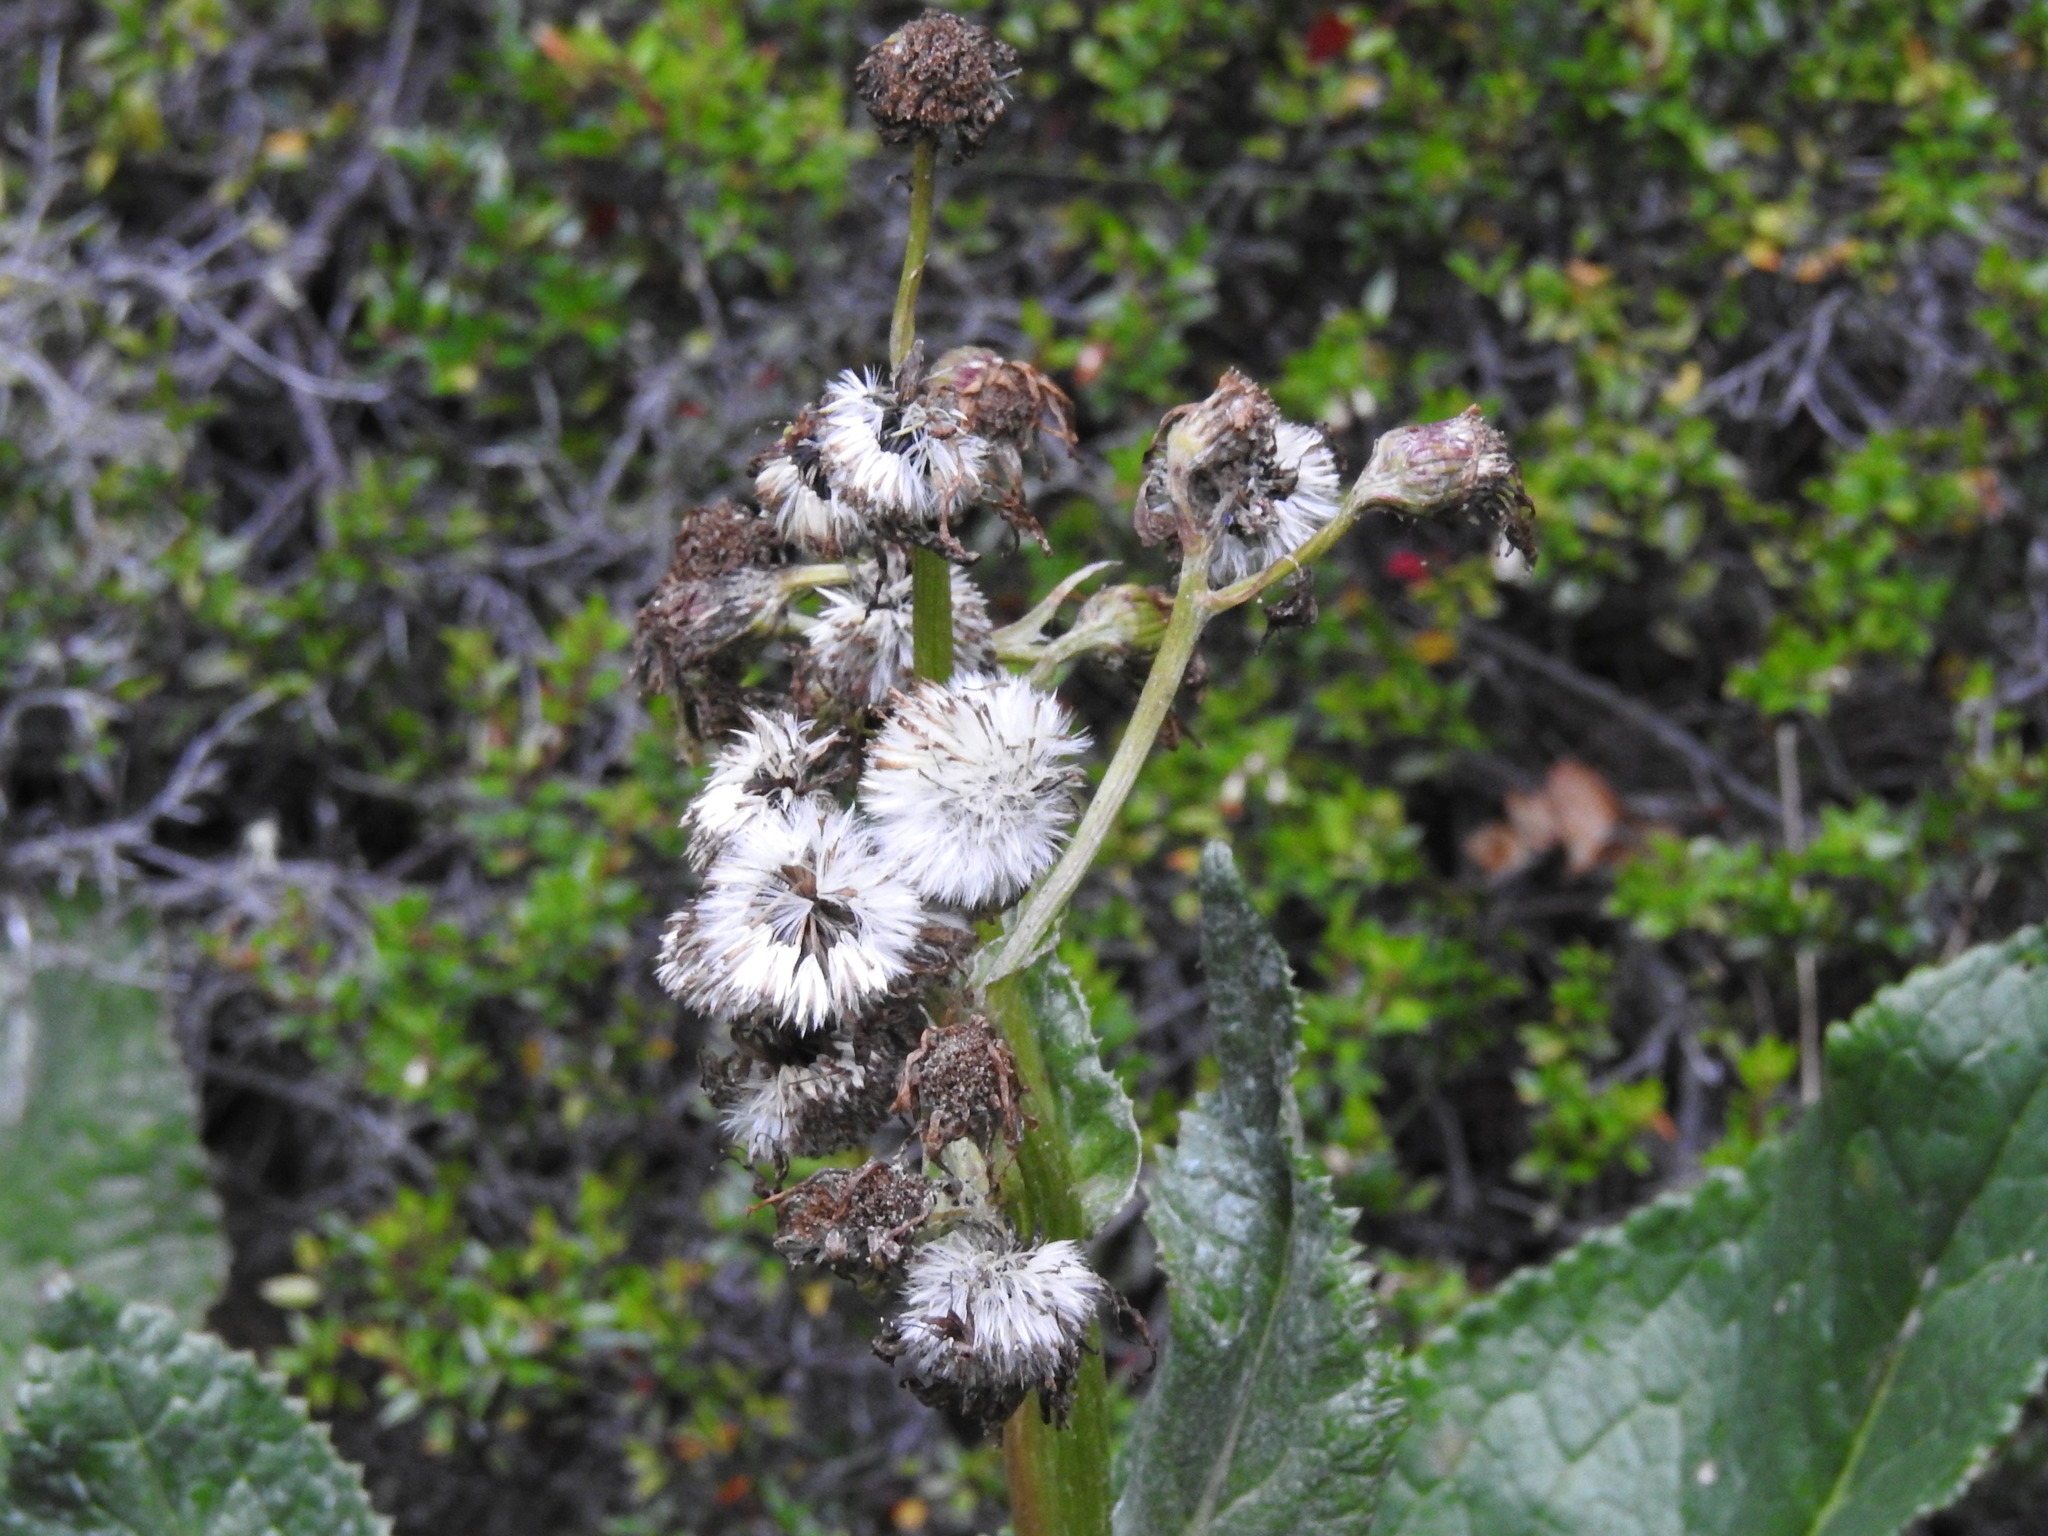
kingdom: Plantae
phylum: Tracheophyta
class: Magnoliopsida
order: Asterales
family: Asteraceae
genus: Senecio
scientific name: Senecio smithii
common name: Magellan ragwort
